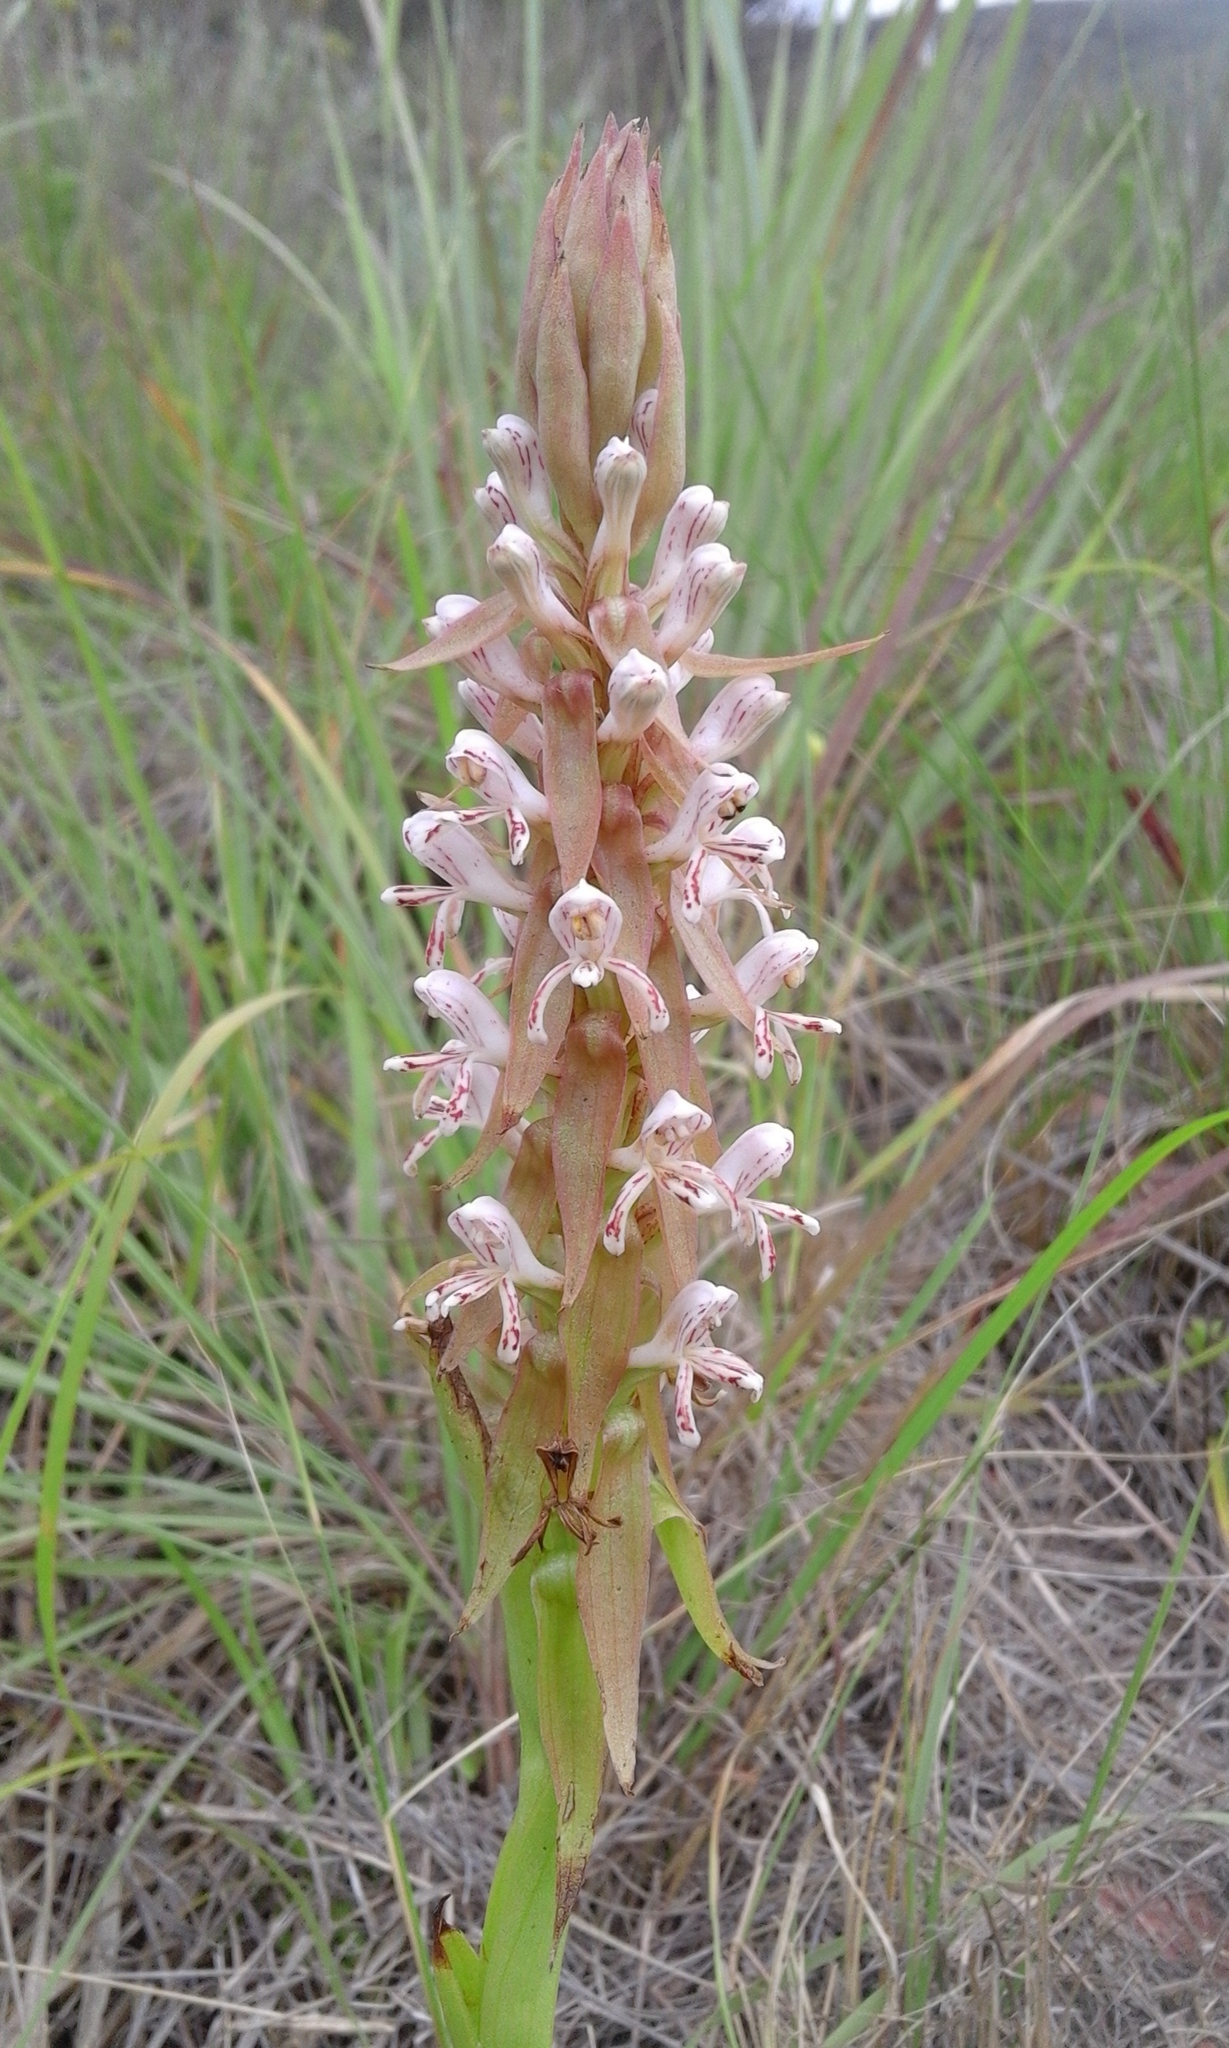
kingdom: Plantae
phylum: Tracheophyta
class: Liliopsida
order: Asparagales
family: Orchidaceae
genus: Satyrium
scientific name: Satyrium cristatum
